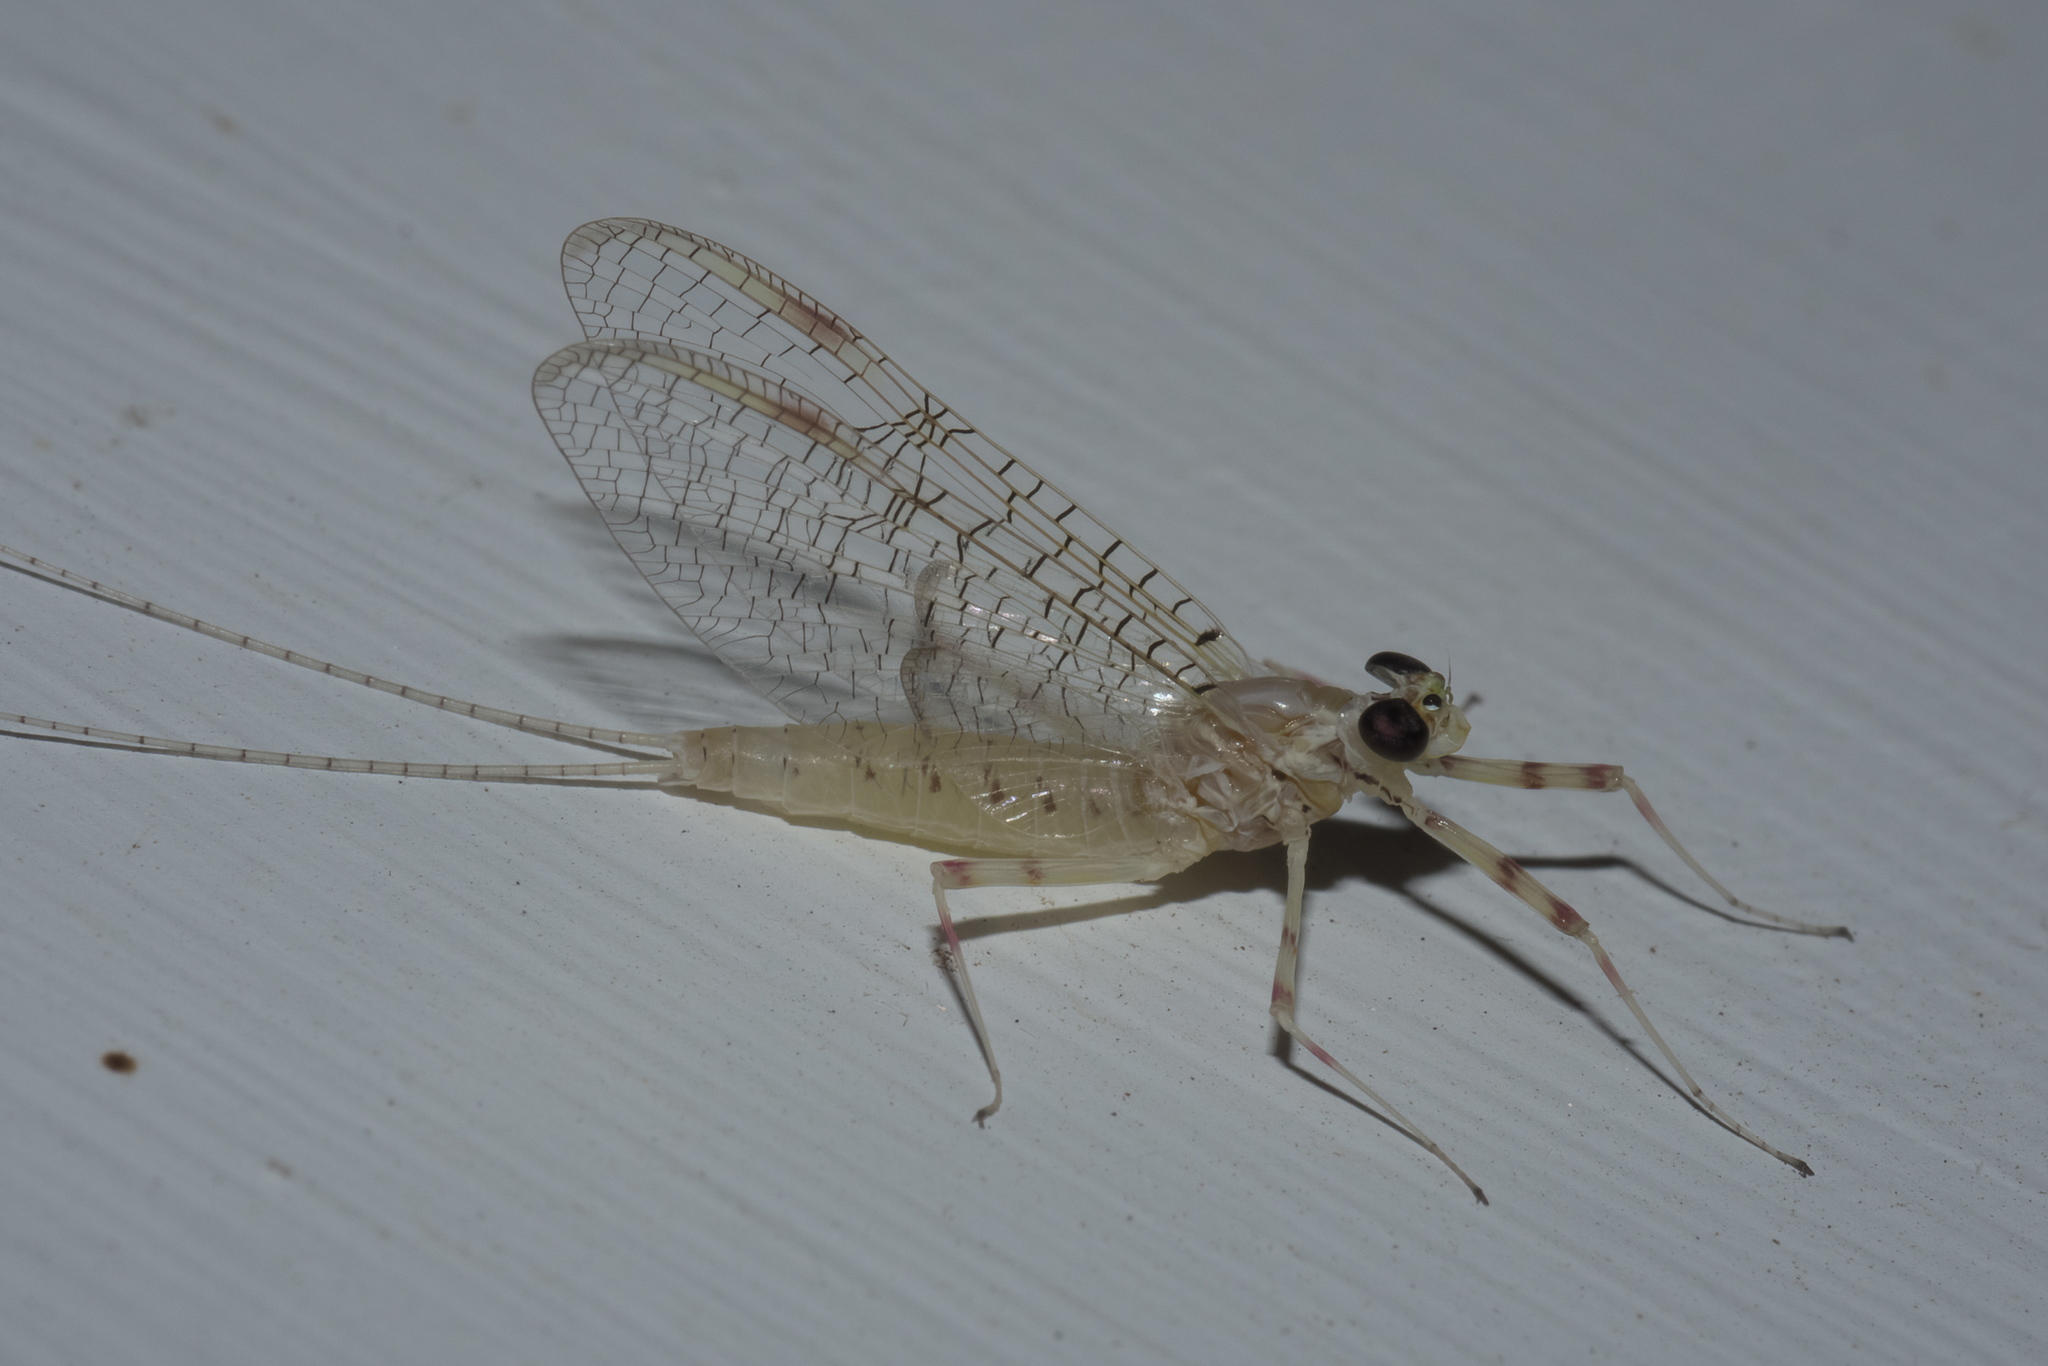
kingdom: Animalia
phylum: Arthropoda
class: Insecta
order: Ephemeroptera
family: Heptageniidae
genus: Stenonema
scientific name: Stenonema femoratum
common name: Dark cahill
